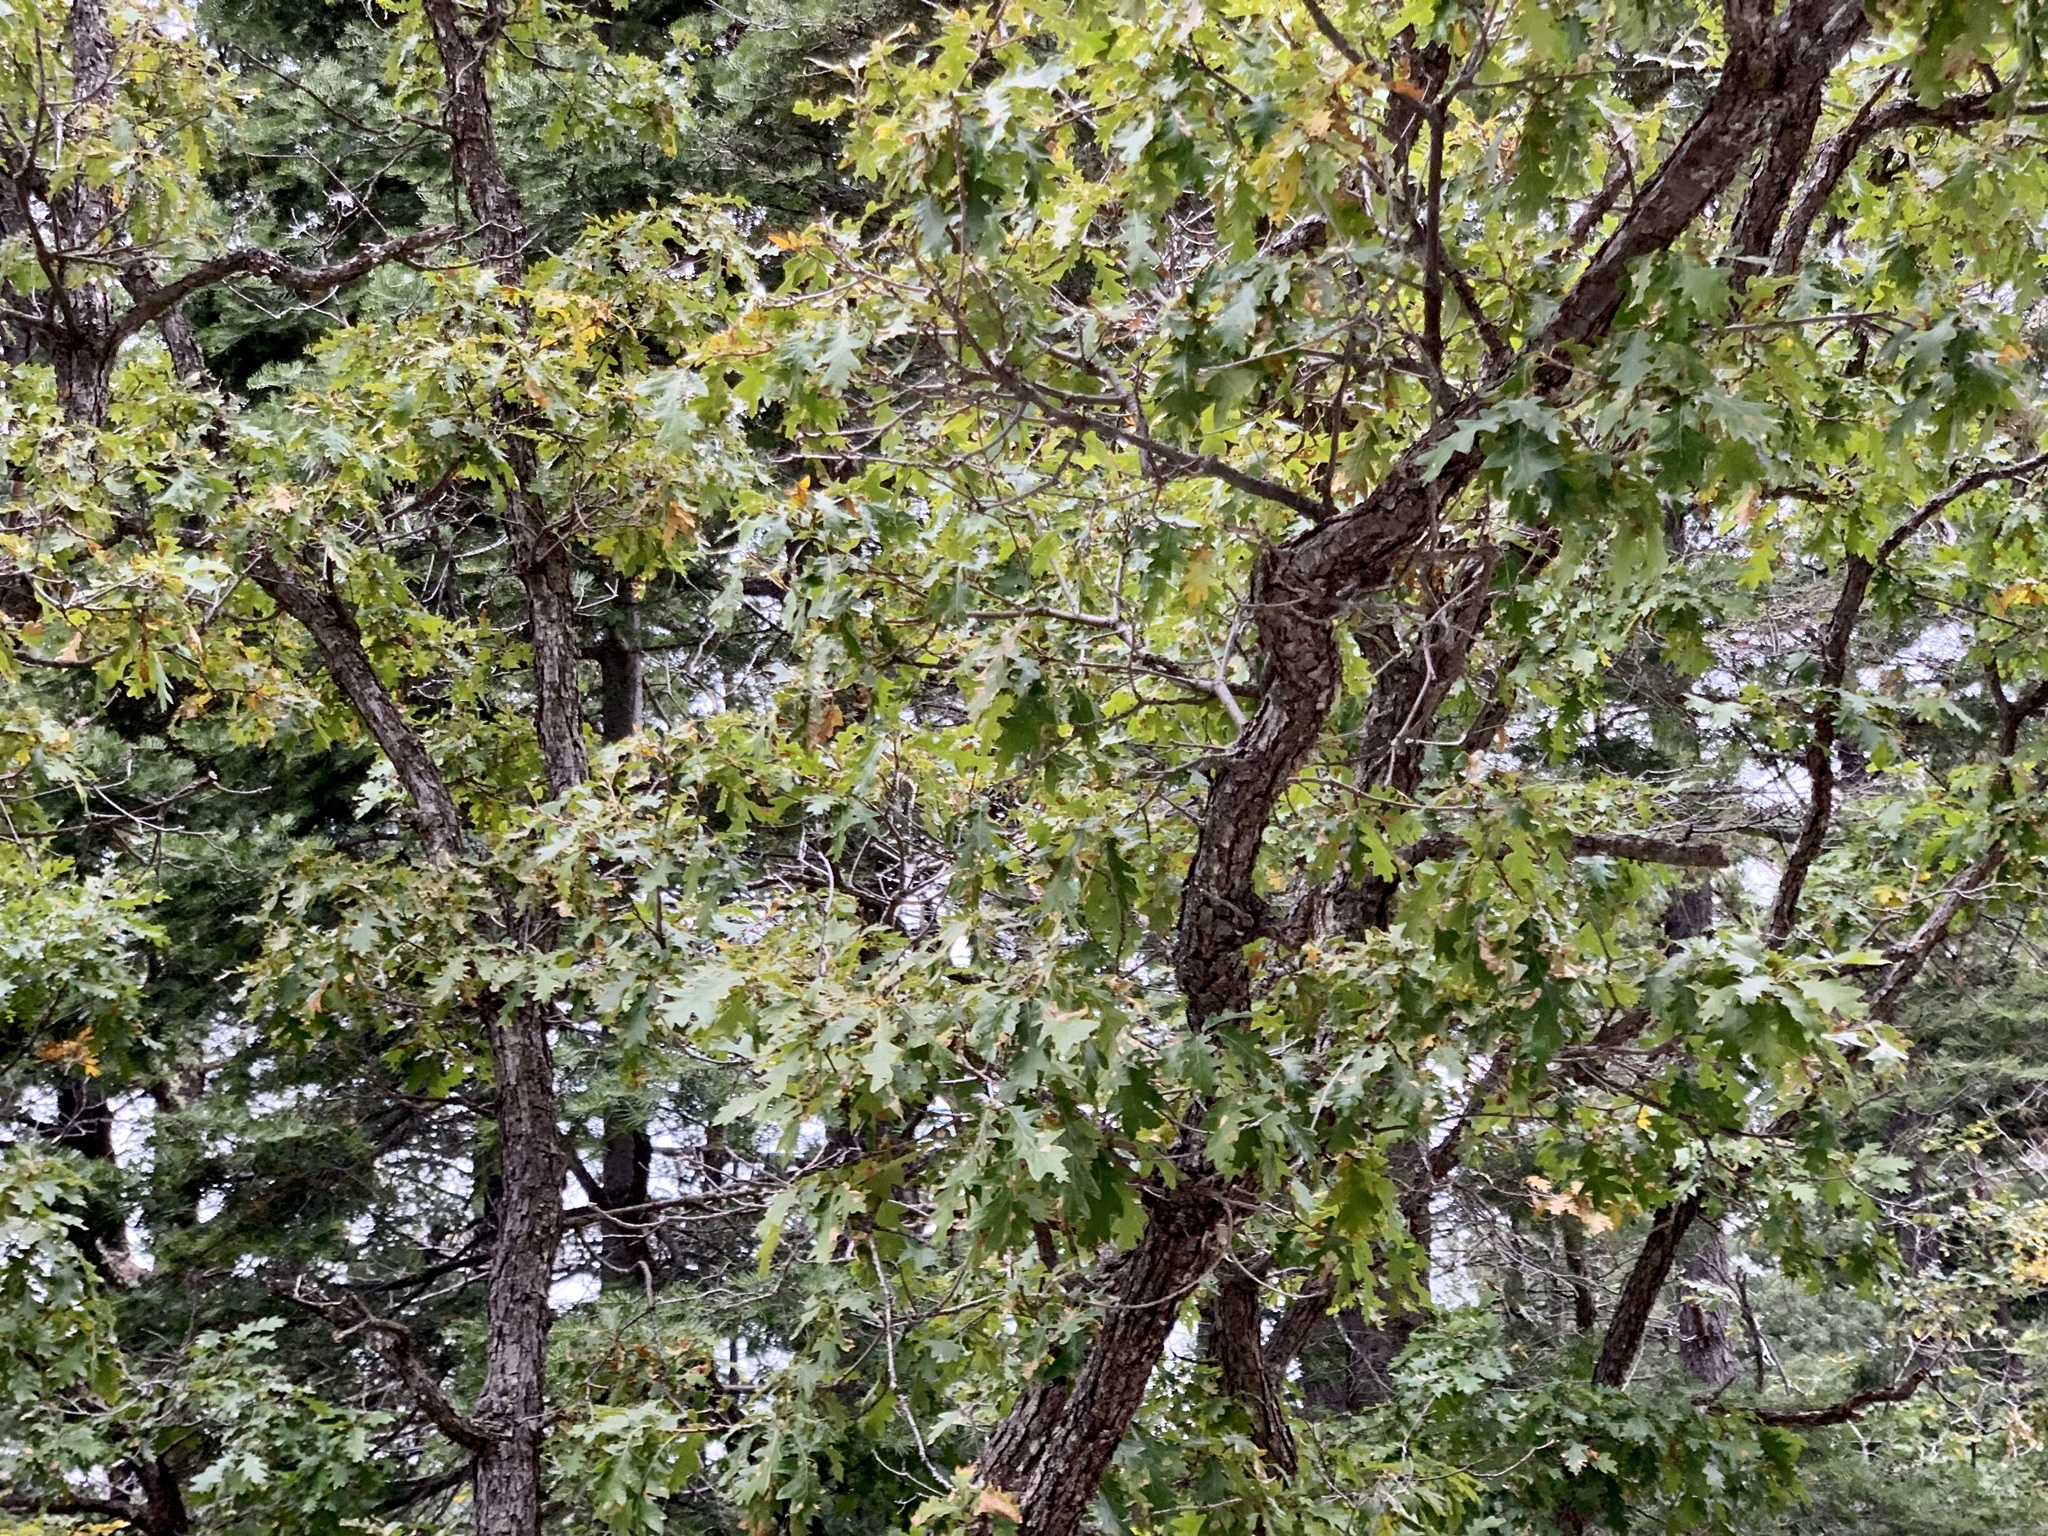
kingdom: Plantae
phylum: Tracheophyta
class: Magnoliopsida
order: Fagales
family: Fagaceae
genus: Quercus
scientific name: Quercus gambelii
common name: Gambel oak
